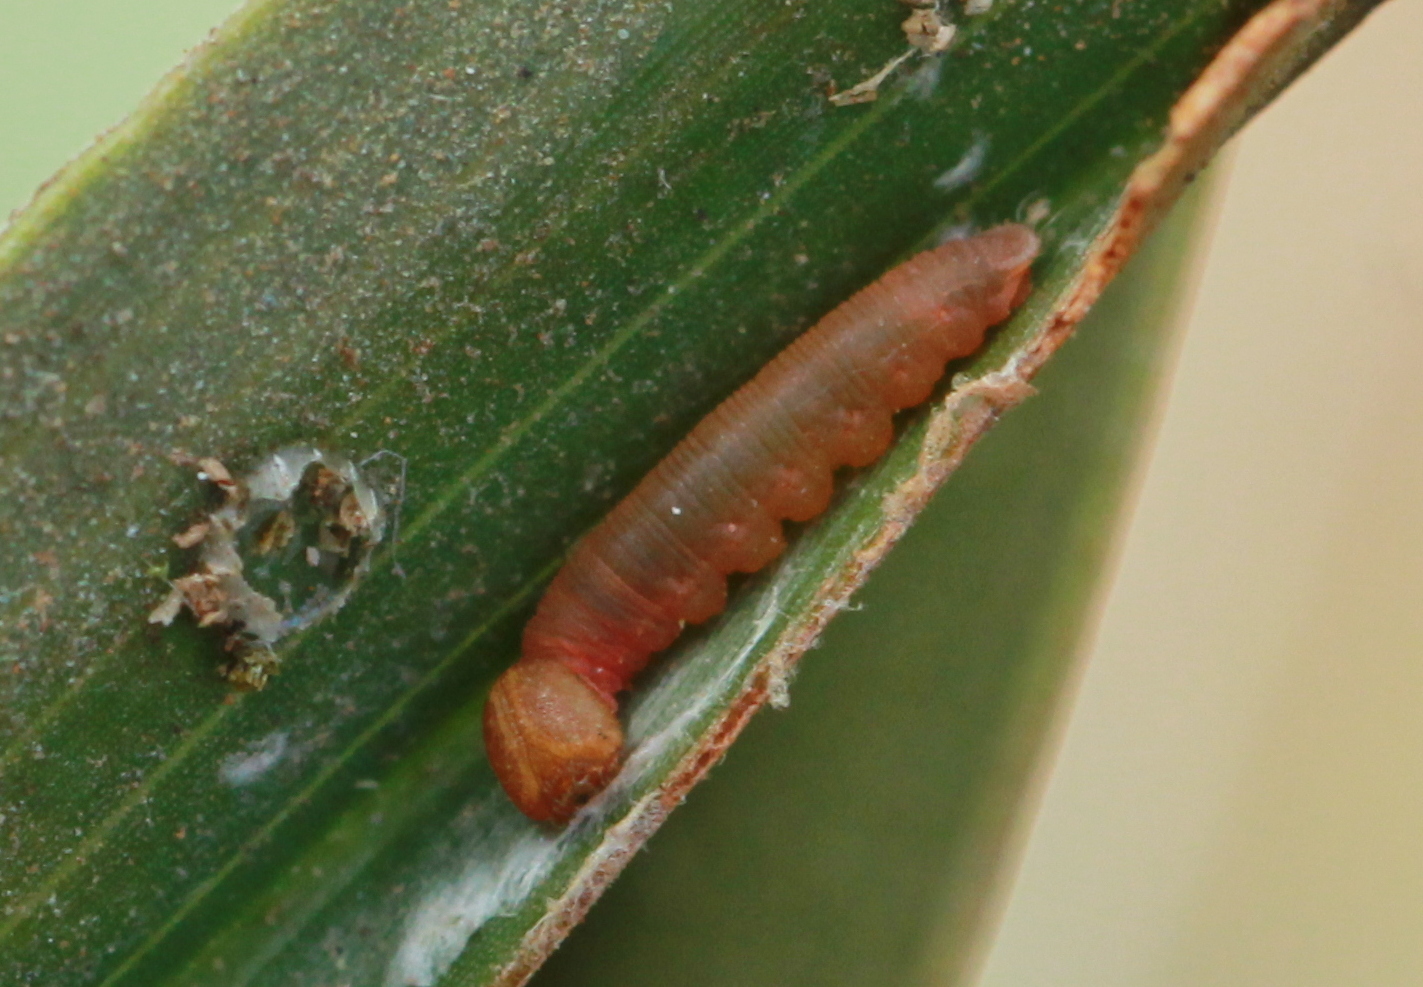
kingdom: Animalia
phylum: Arthropoda
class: Insecta
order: Lepidoptera
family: Hesperiidae
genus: Suastus
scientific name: Suastus gremius
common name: Indian palm bob
